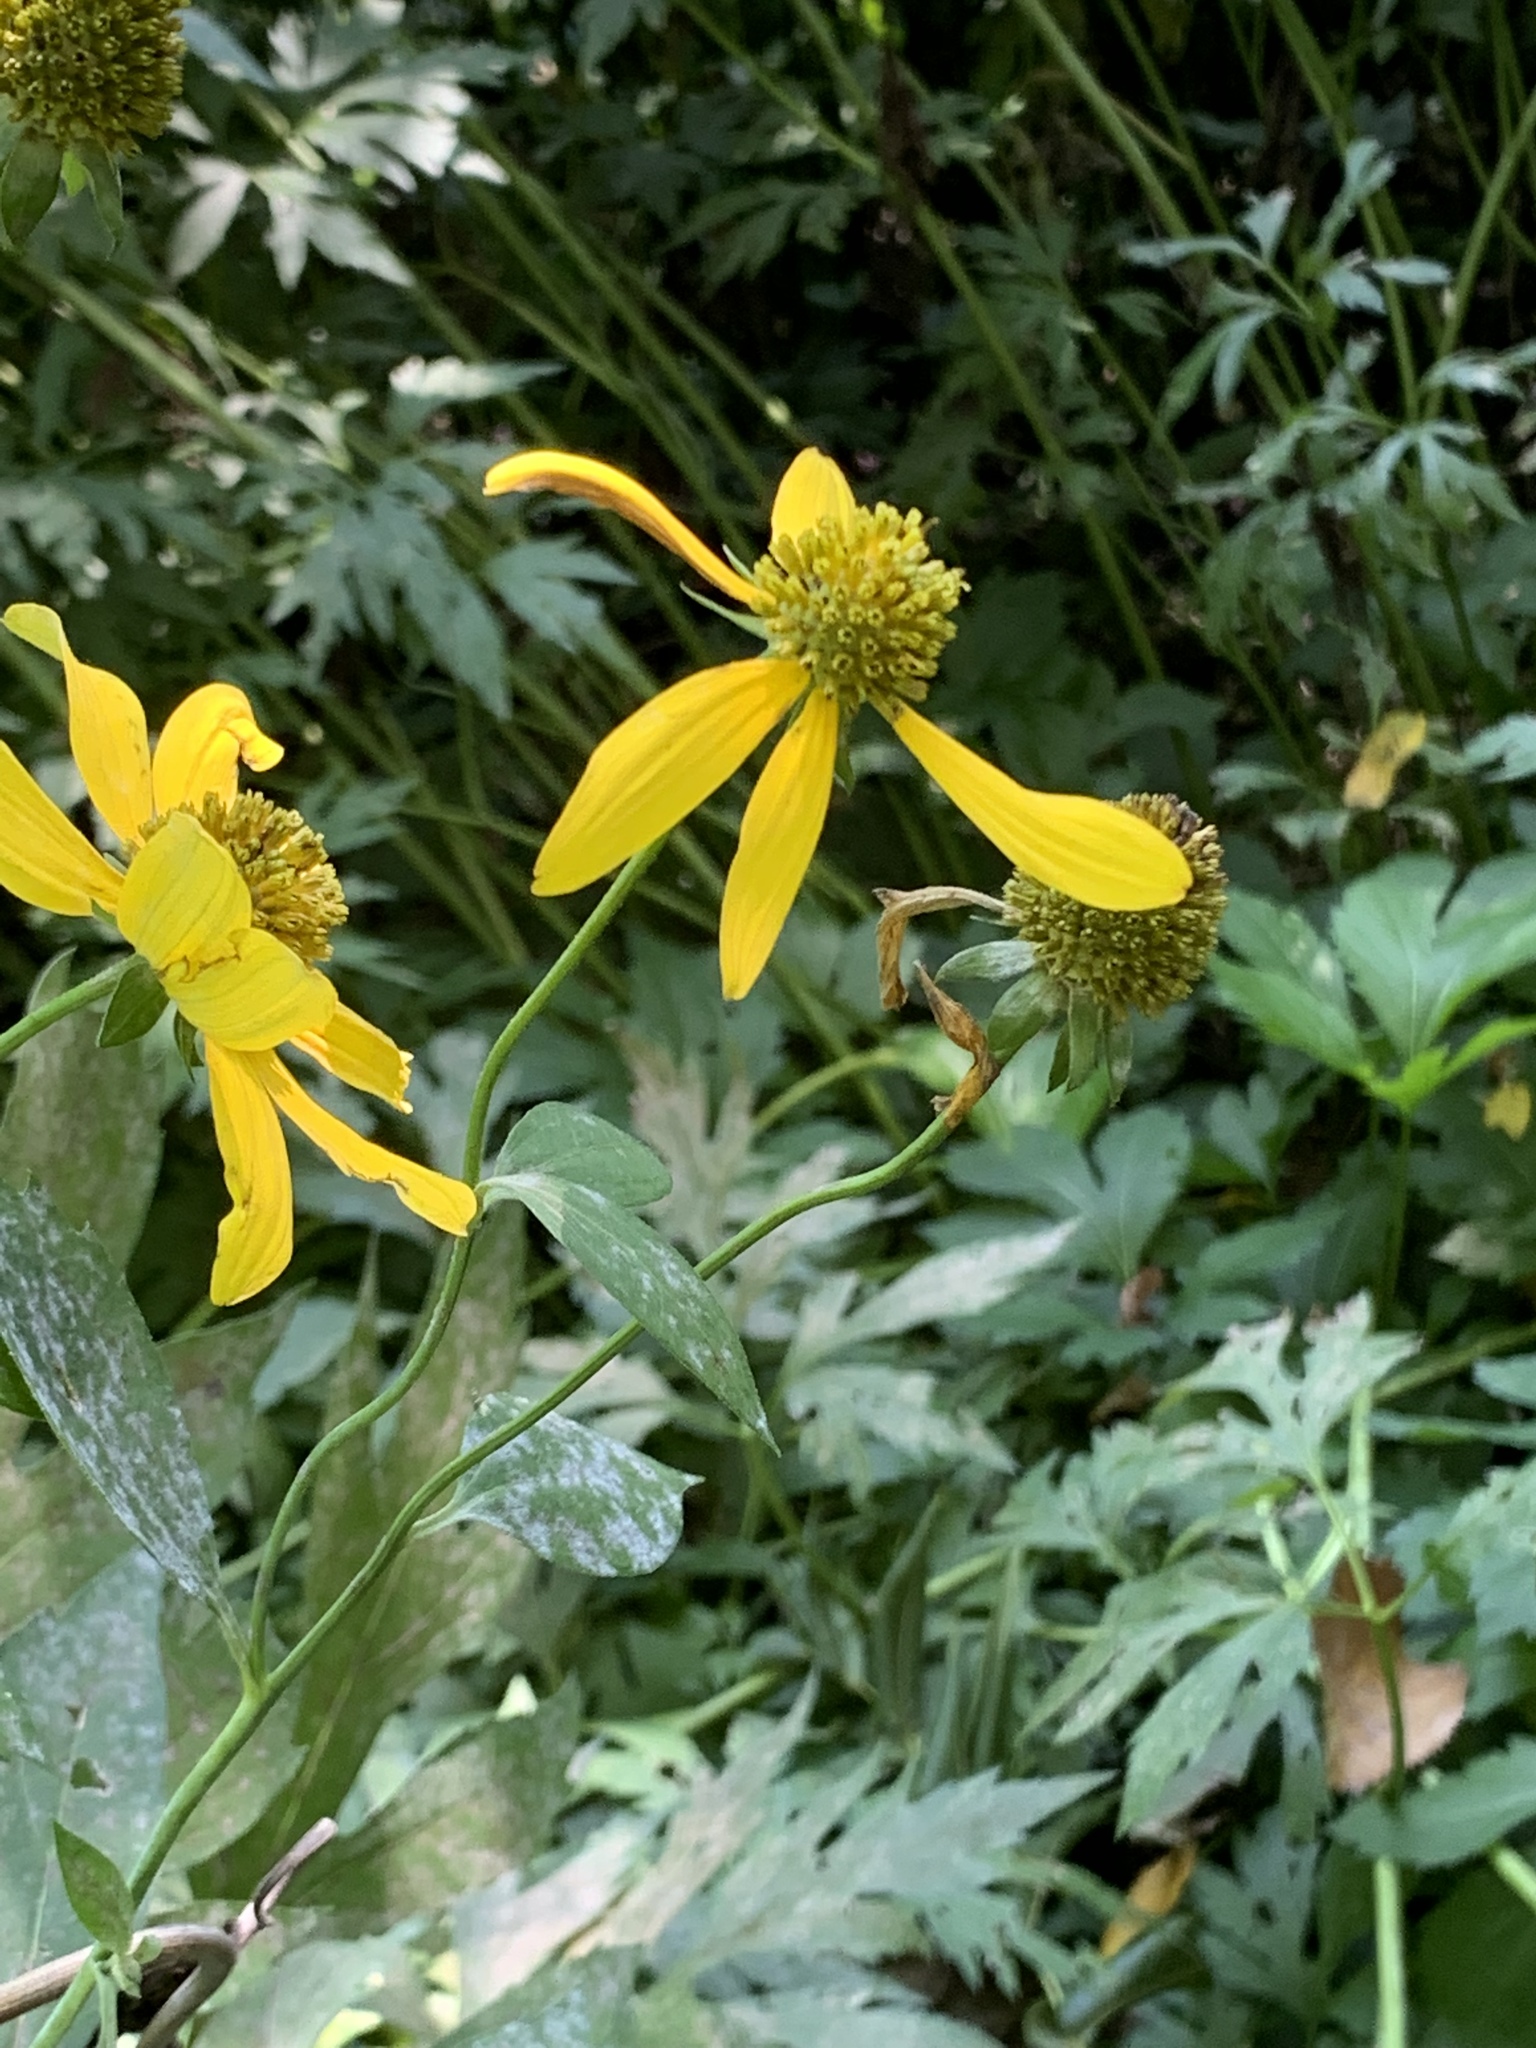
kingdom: Plantae
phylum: Tracheophyta
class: Magnoliopsida
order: Asterales
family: Asteraceae
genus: Rudbeckia
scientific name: Rudbeckia laciniata
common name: Coneflower
